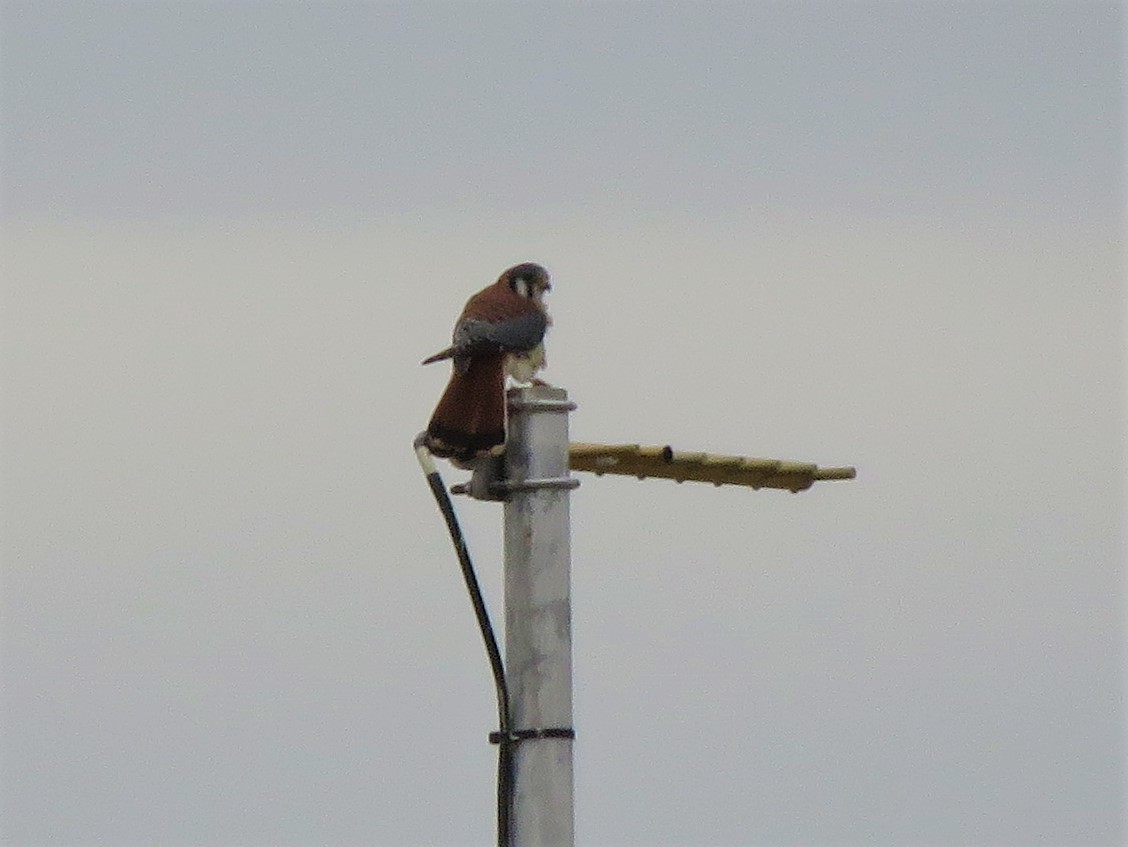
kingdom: Animalia
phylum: Chordata
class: Aves
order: Falconiformes
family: Falconidae
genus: Falco
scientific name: Falco sparverius
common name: American kestrel
